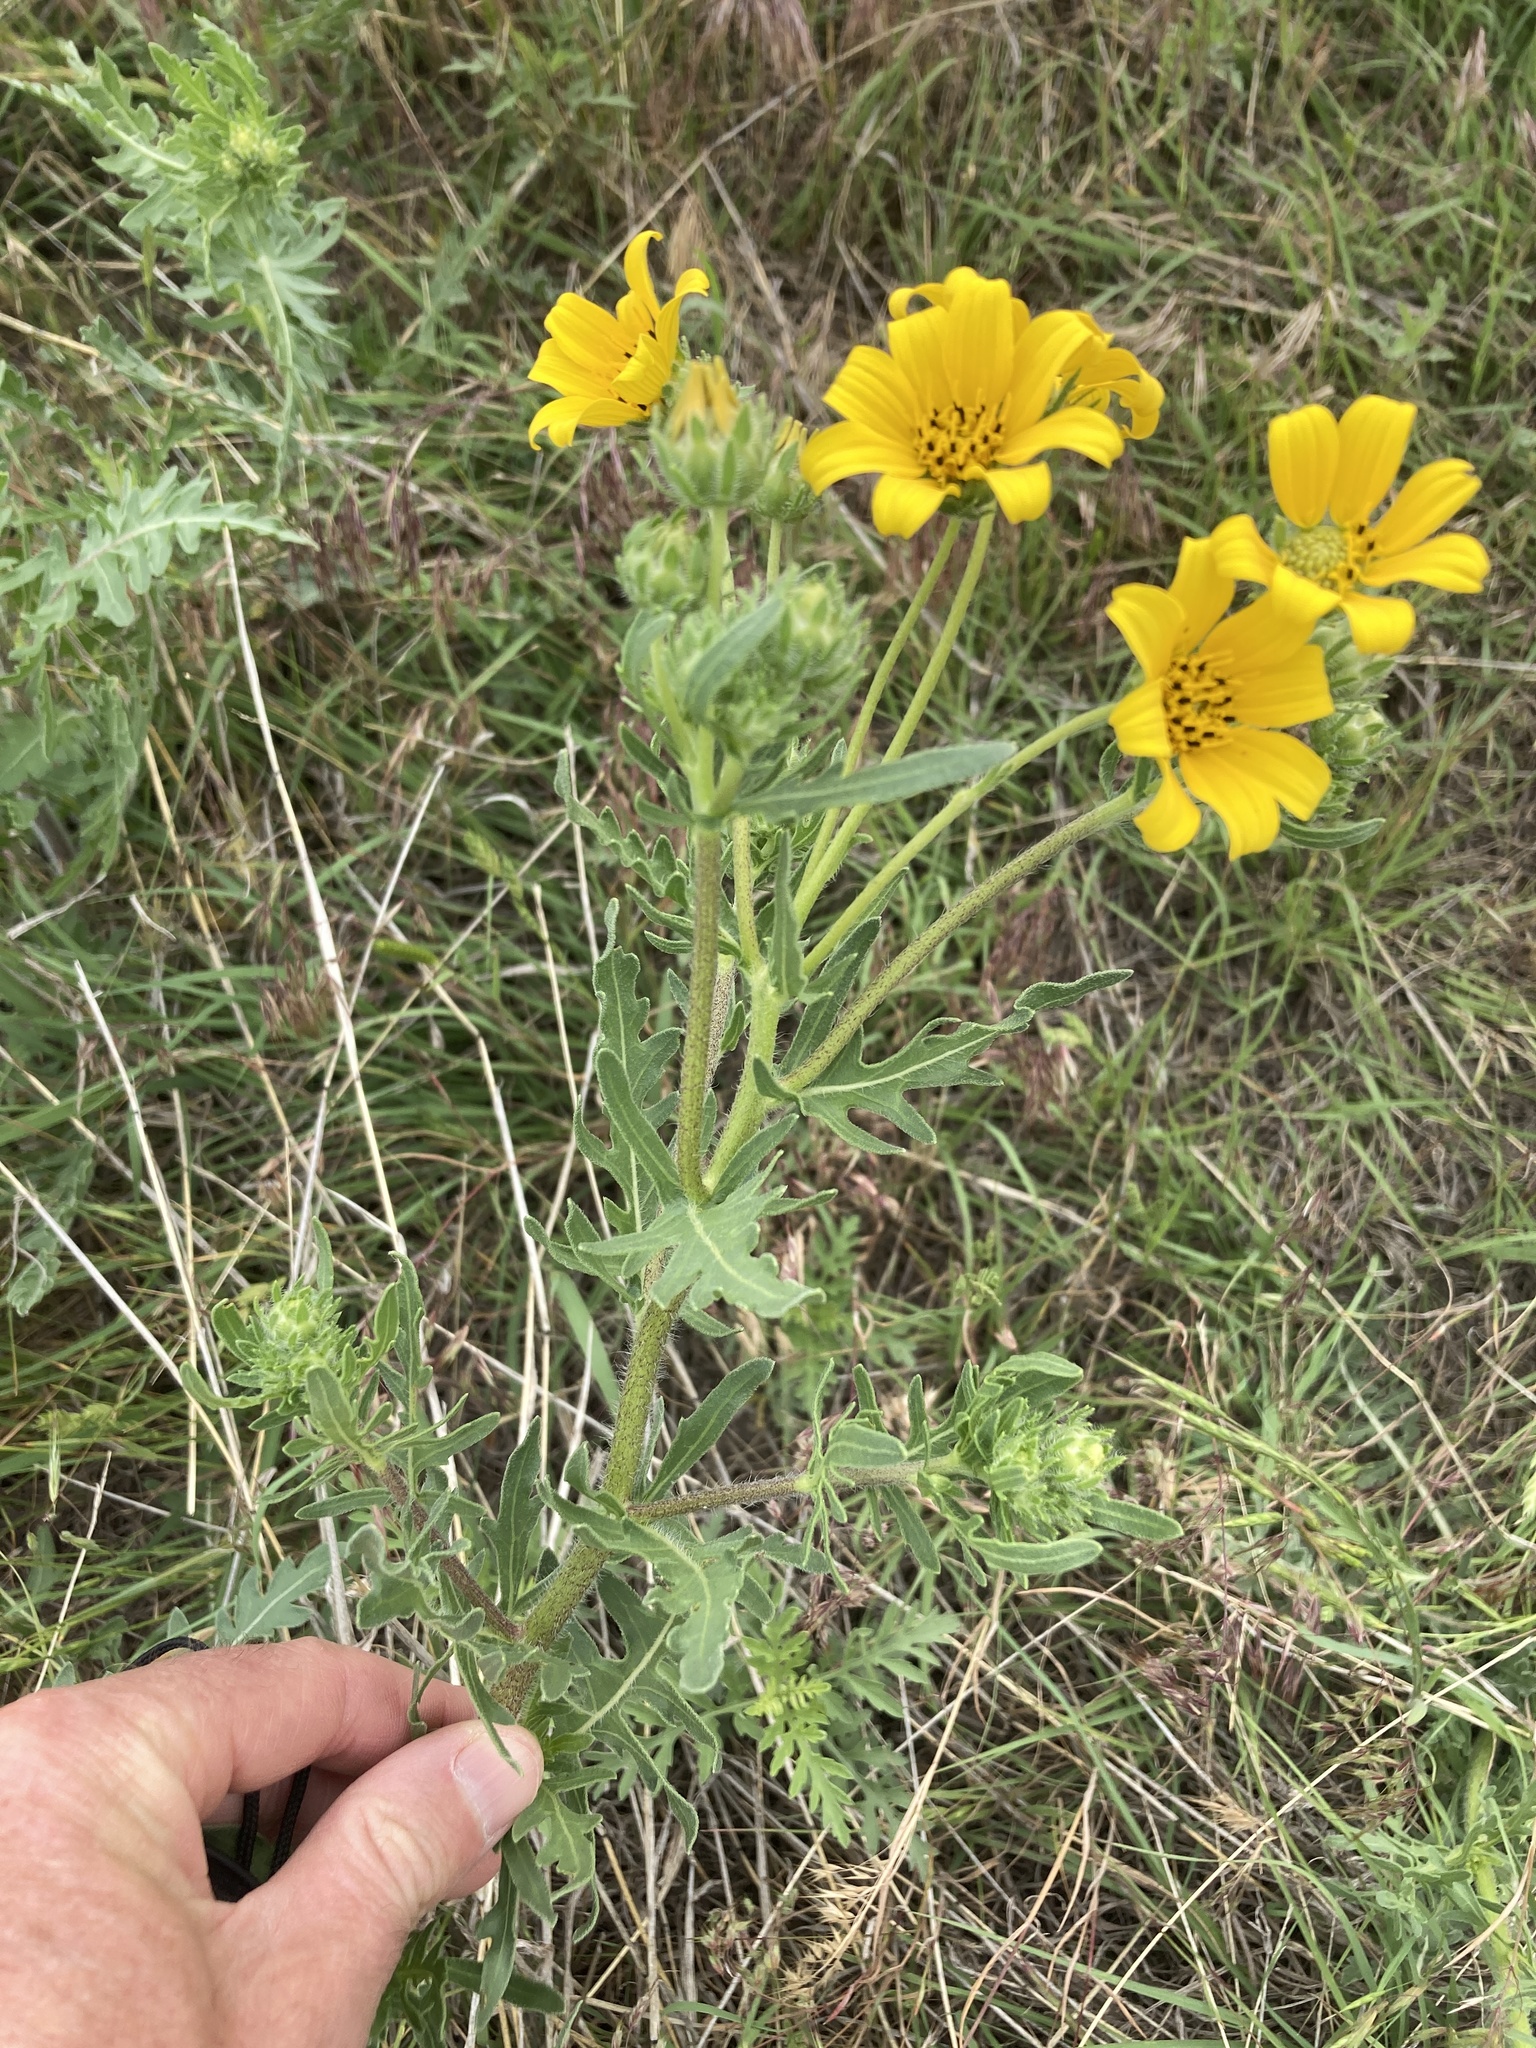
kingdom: Plantae
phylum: Tracheophyta
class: Magnoliopsida
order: Asterales
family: Asteraceae
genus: Engelmannia
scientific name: Engelmannia peristenia
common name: Engelmann's daisy
